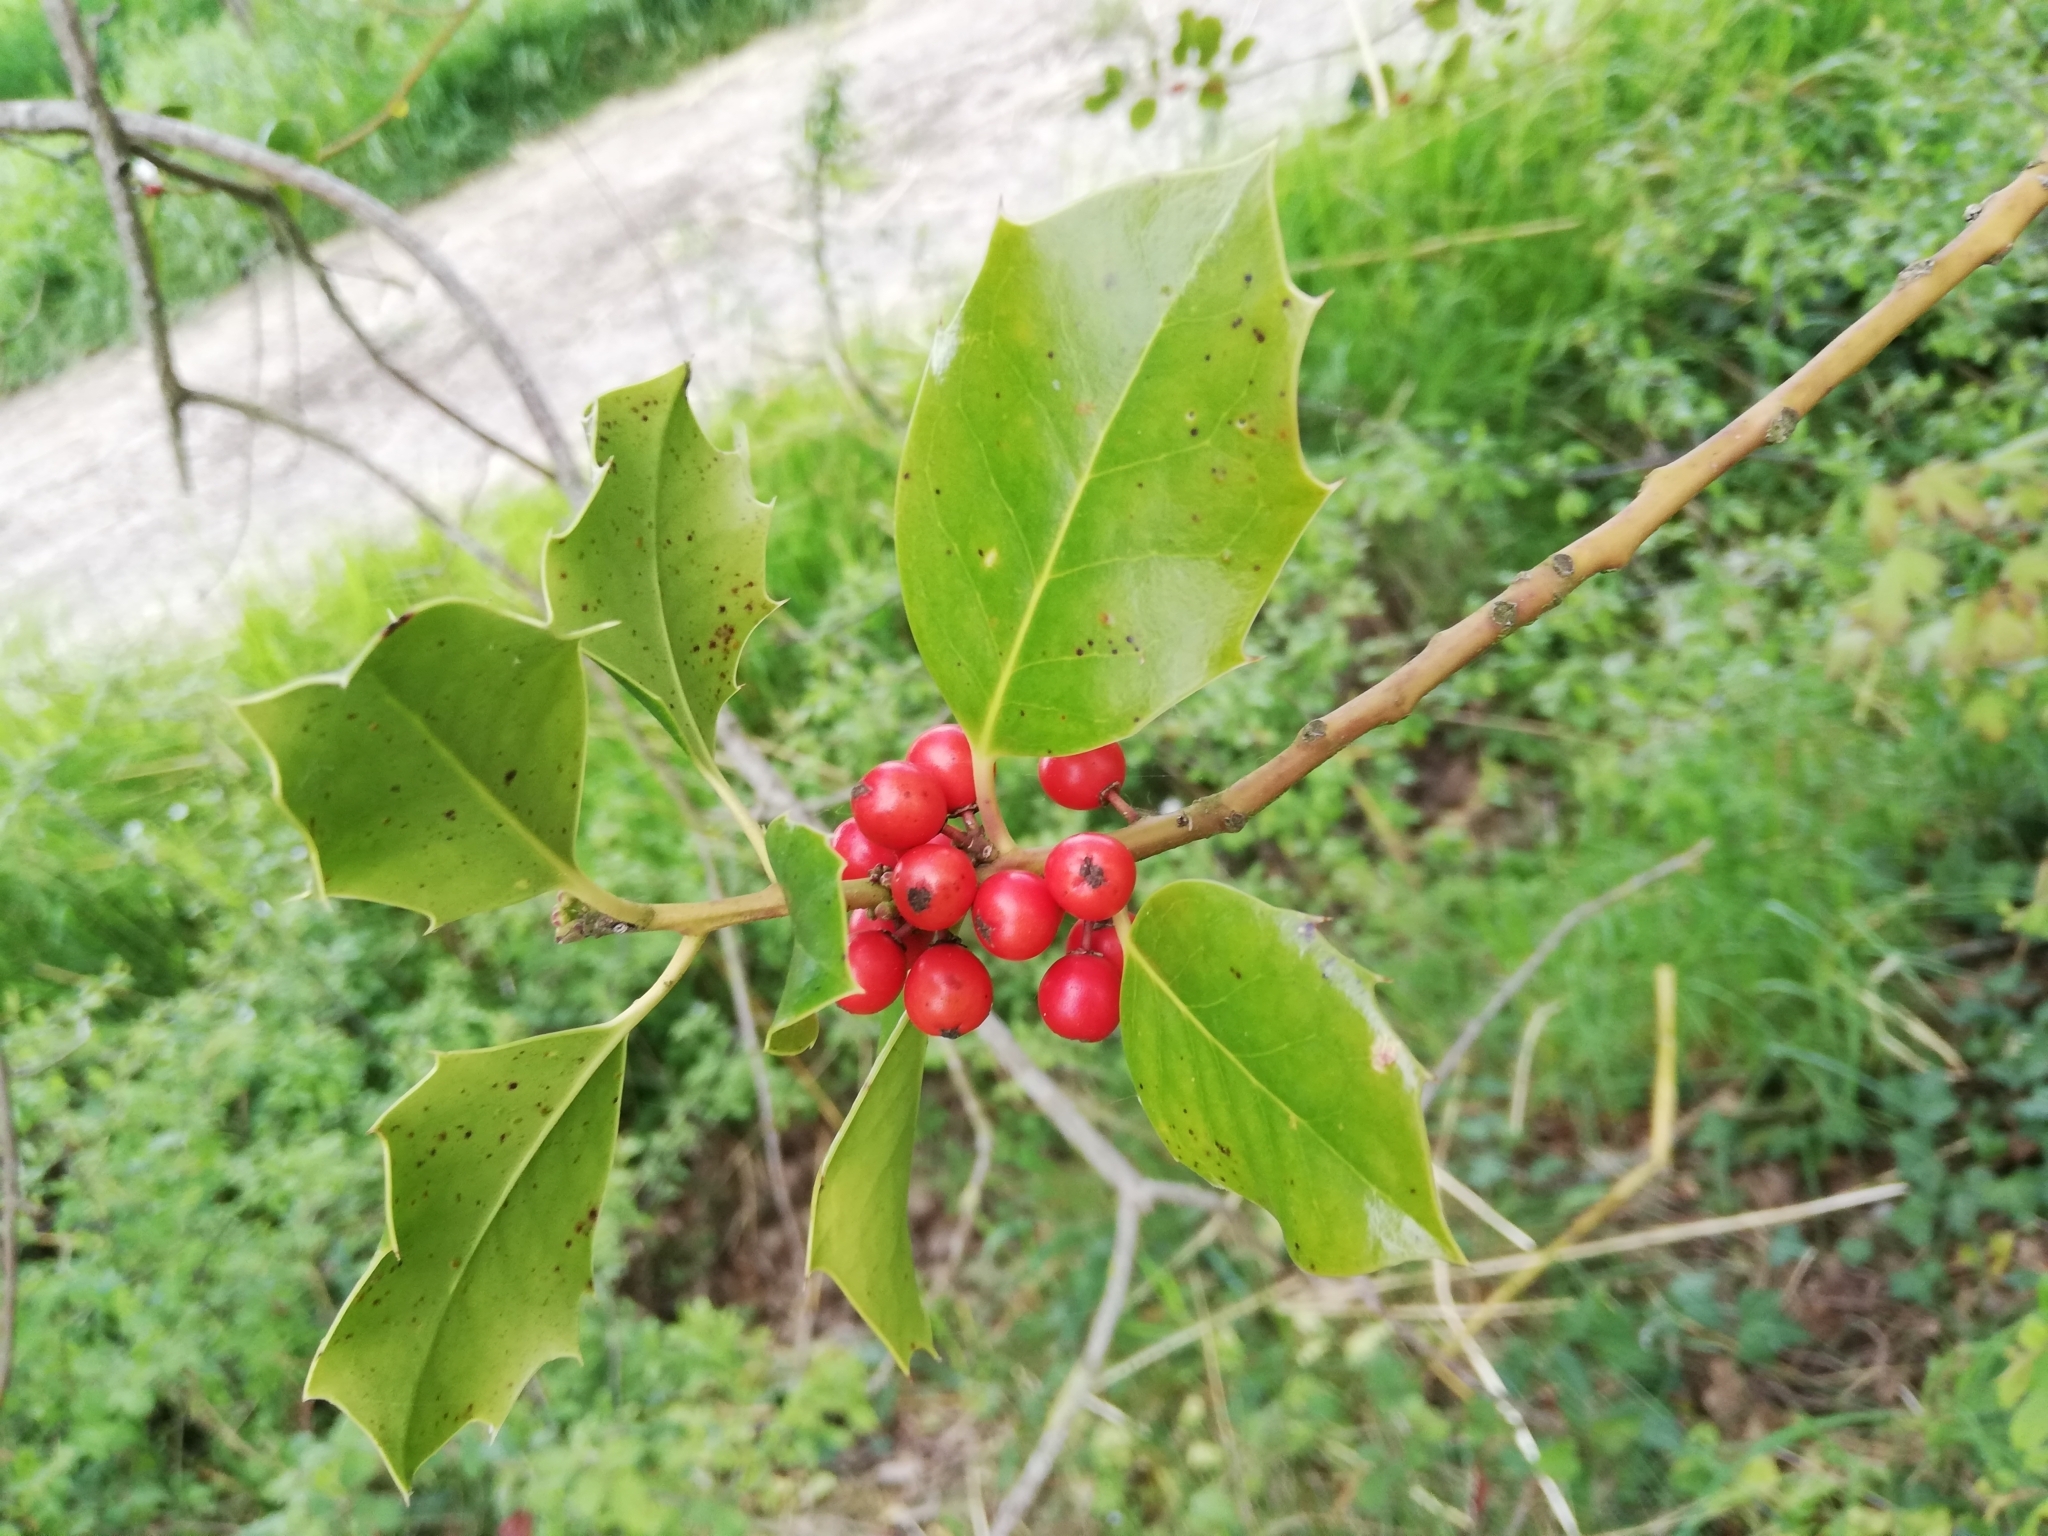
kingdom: Plantae
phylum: Tracheophyta
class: Magnoliopsida
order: Aquifoliales
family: Aquifoliaceae
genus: Ilex
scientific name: Ilex aquifolium
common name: English holly
